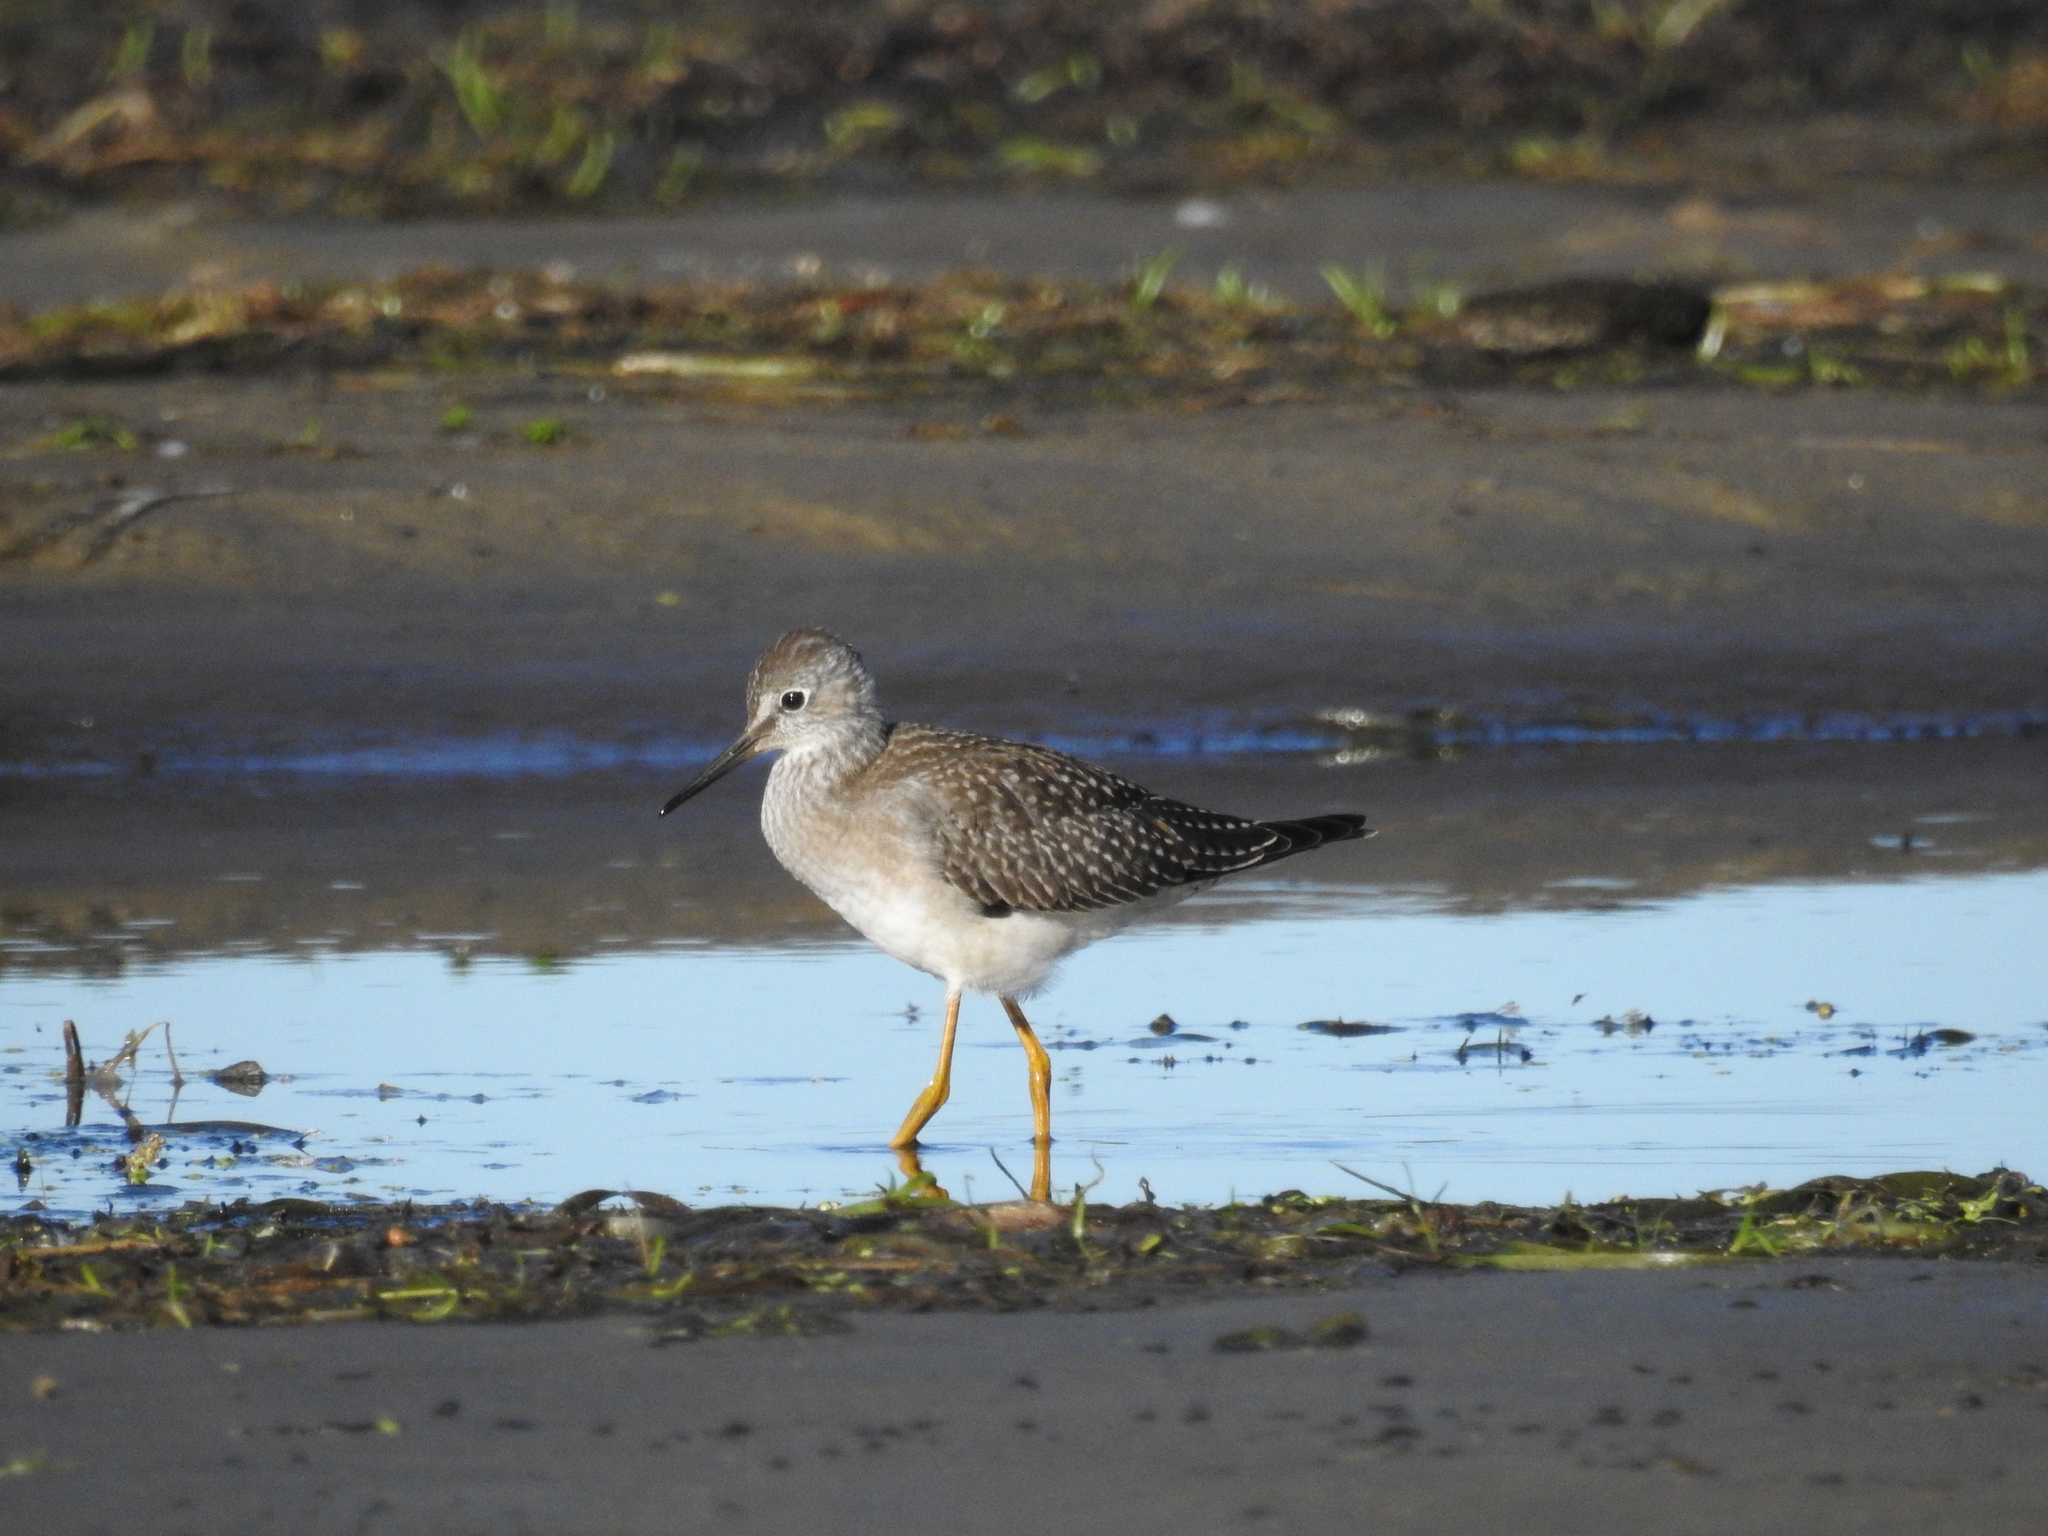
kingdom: Animalia
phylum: Chordata
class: Aves
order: Charadriiformes
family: Scolopacidae
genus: Tringa
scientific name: Tringa flavipes
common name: Lesser yellowlegs
